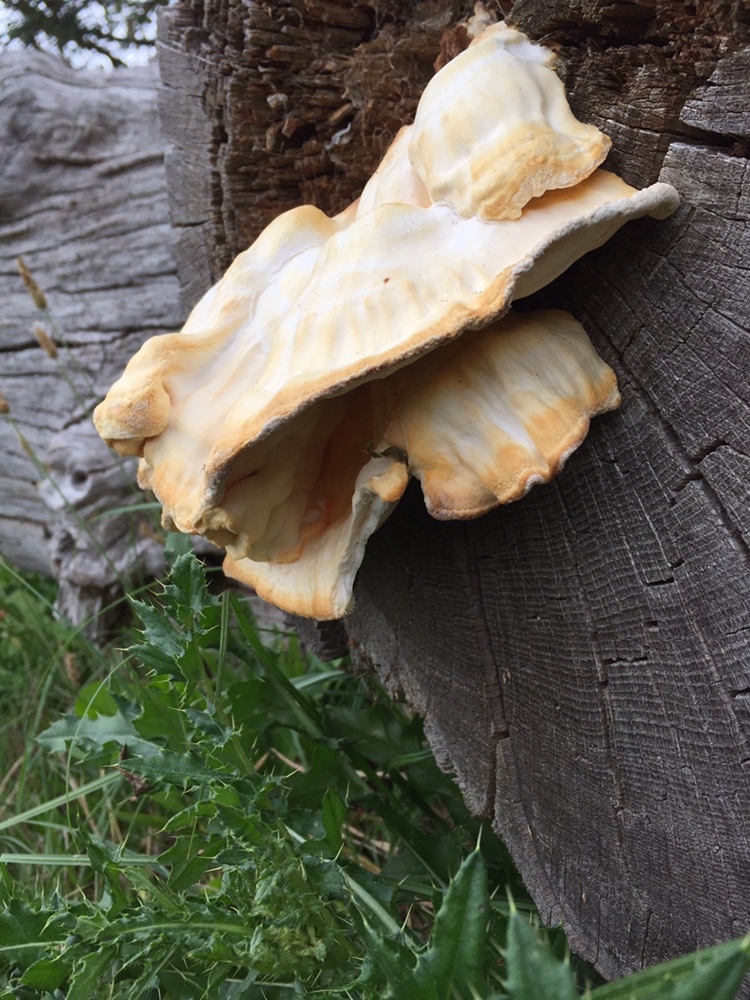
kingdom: Fungi
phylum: Basidiomycota
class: Agaricomycetes
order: Polyporales
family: Laetiporaceae
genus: Laetiporus
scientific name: Laetiporus sulphureus
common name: Chicken of the woods
